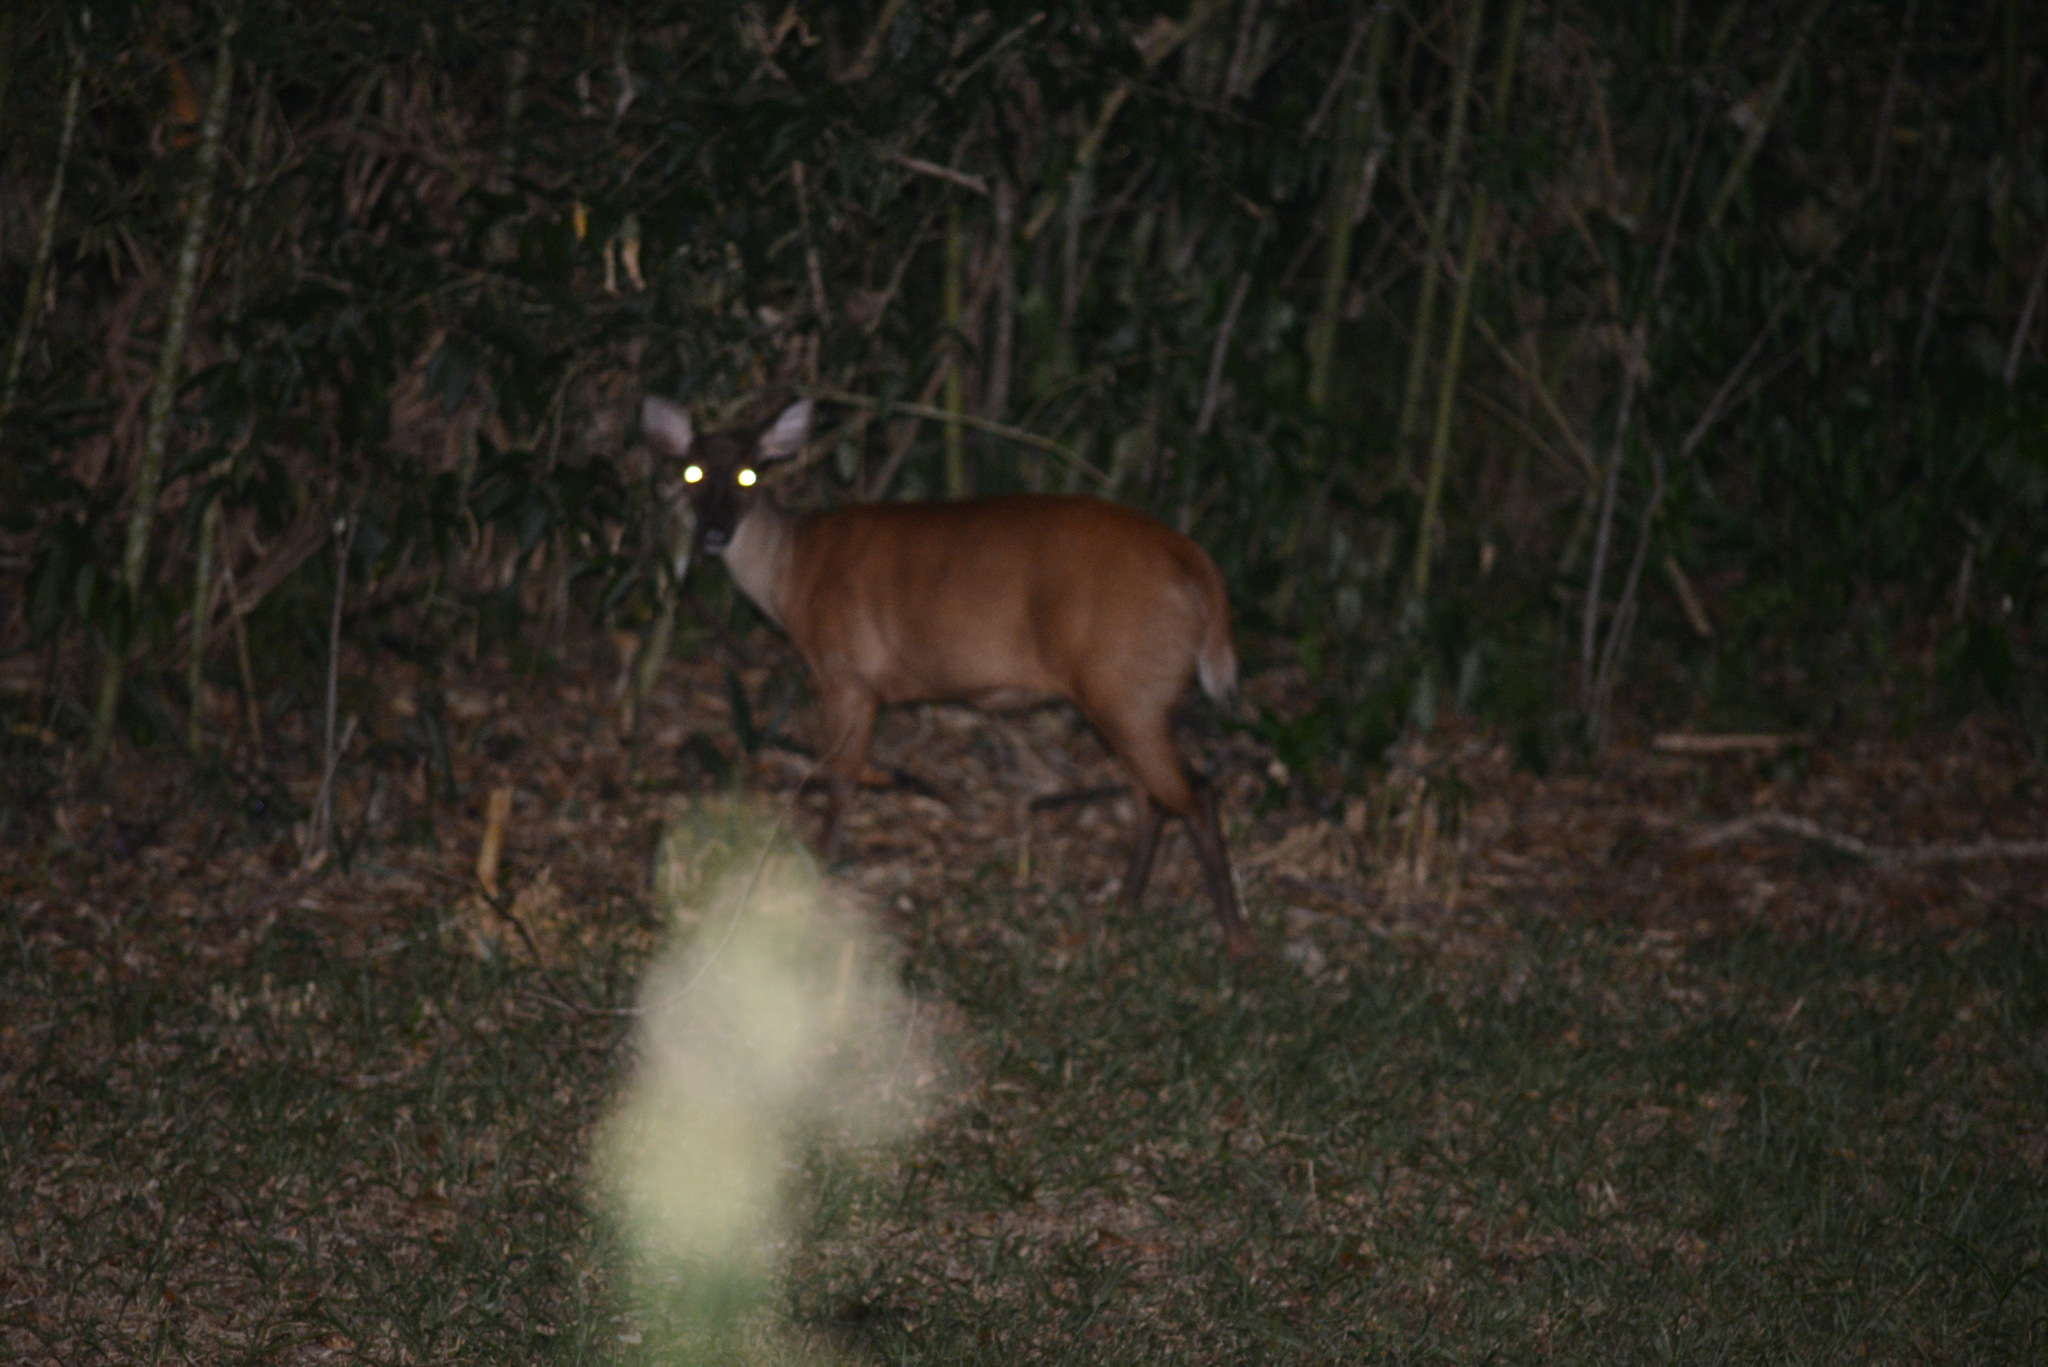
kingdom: Animalia
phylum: Chordata
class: Mammalia
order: Artiodactyla
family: Cervidae
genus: Mazama
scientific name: Mazama americana
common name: Red brocket
